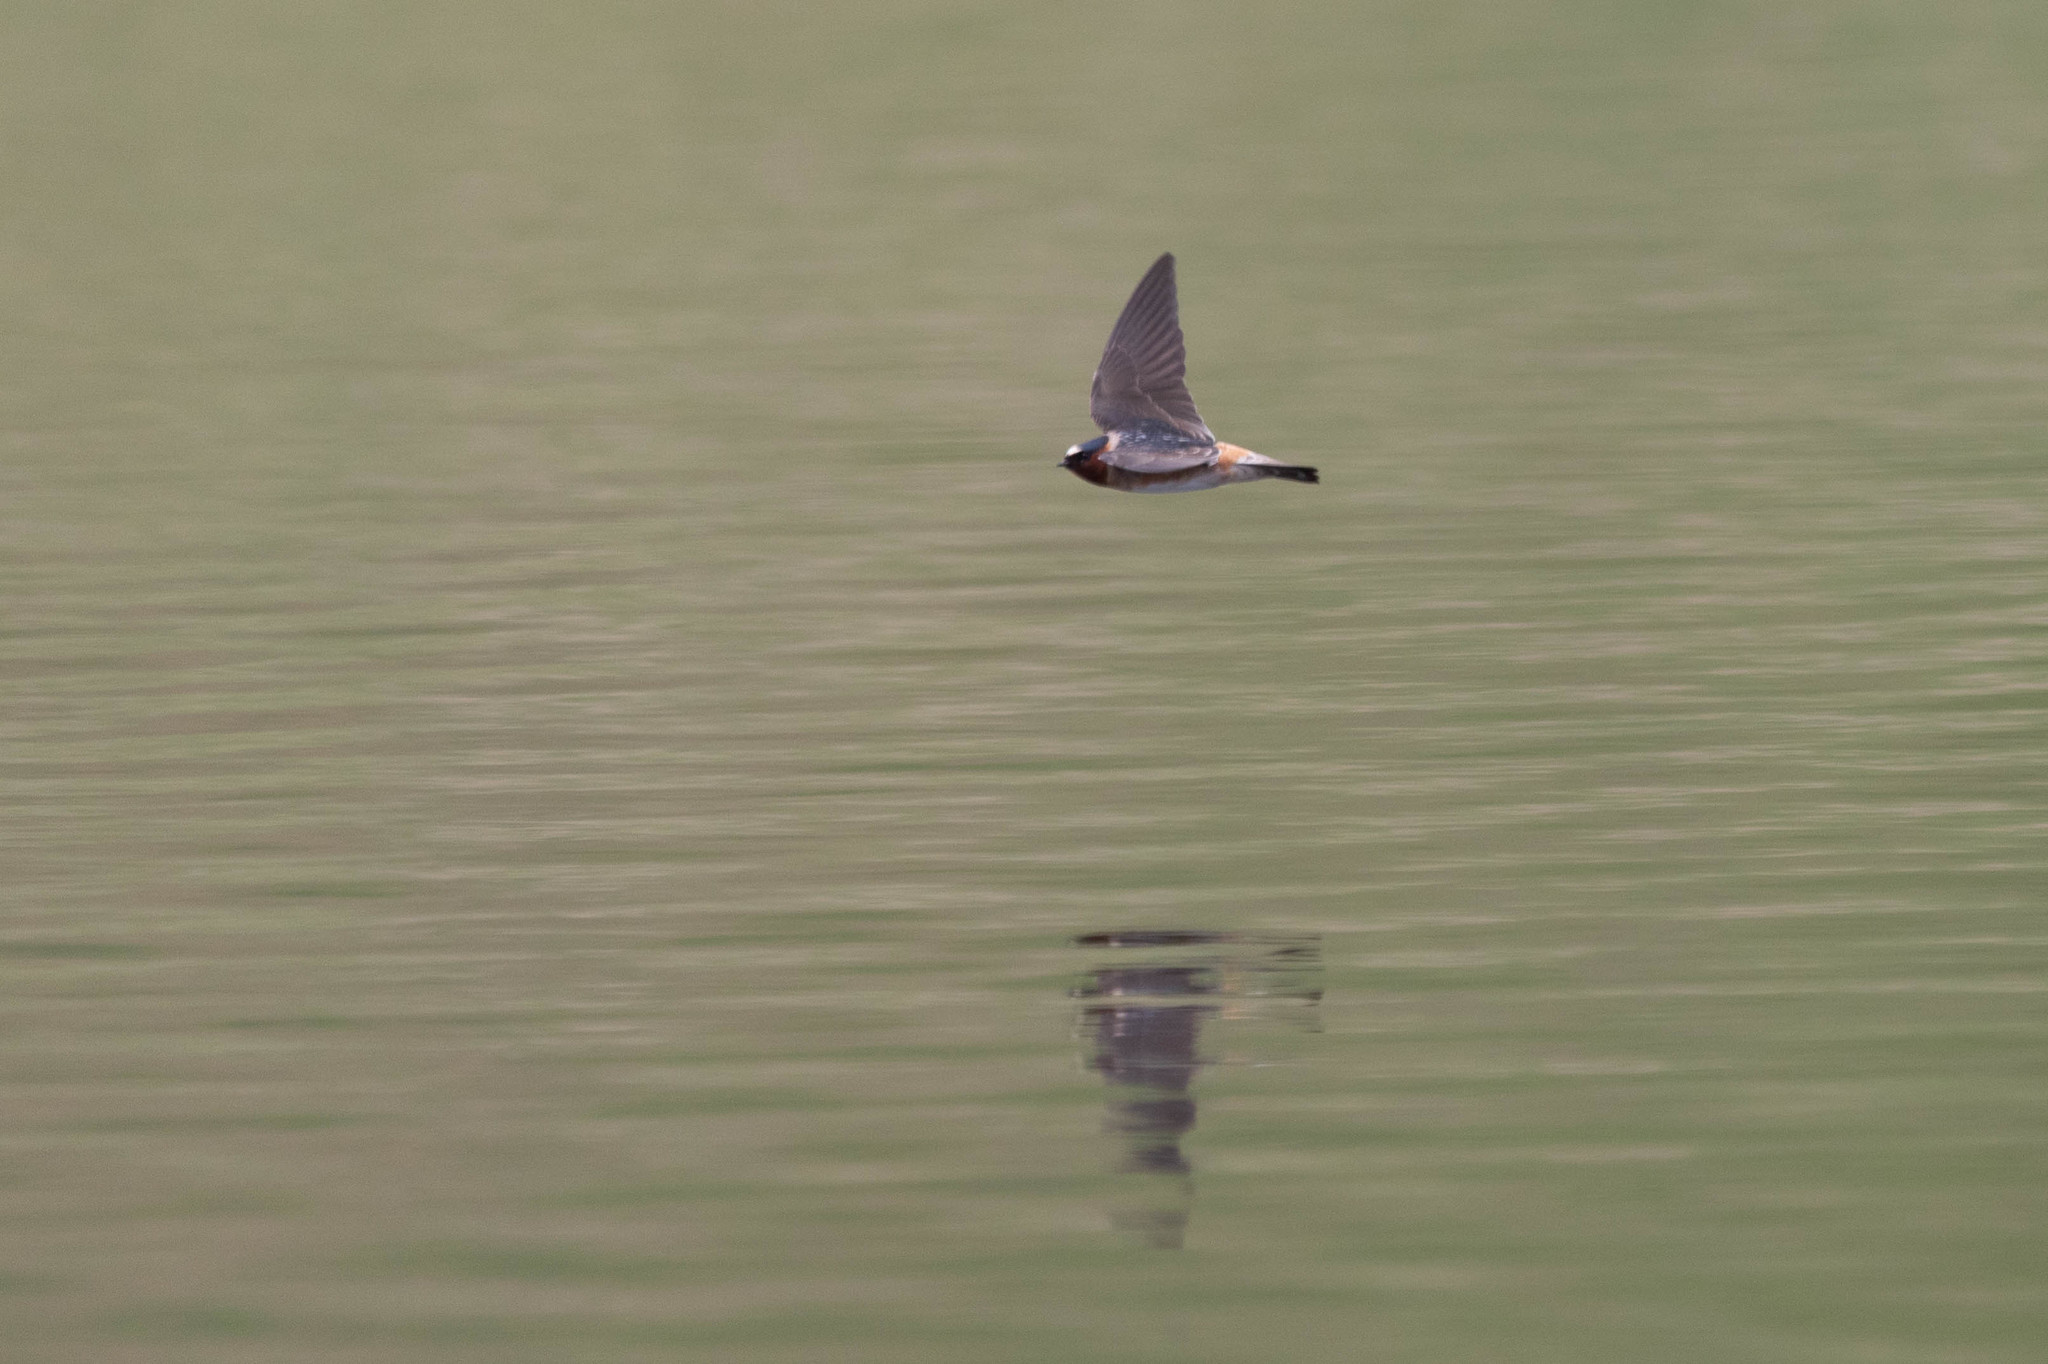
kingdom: Animalia
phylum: Chordata
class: Aves
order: Passeriformes
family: Hirundinidae
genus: Petrochelidon
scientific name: Petrochelidon pyrrhonota
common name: American cliff swallow
